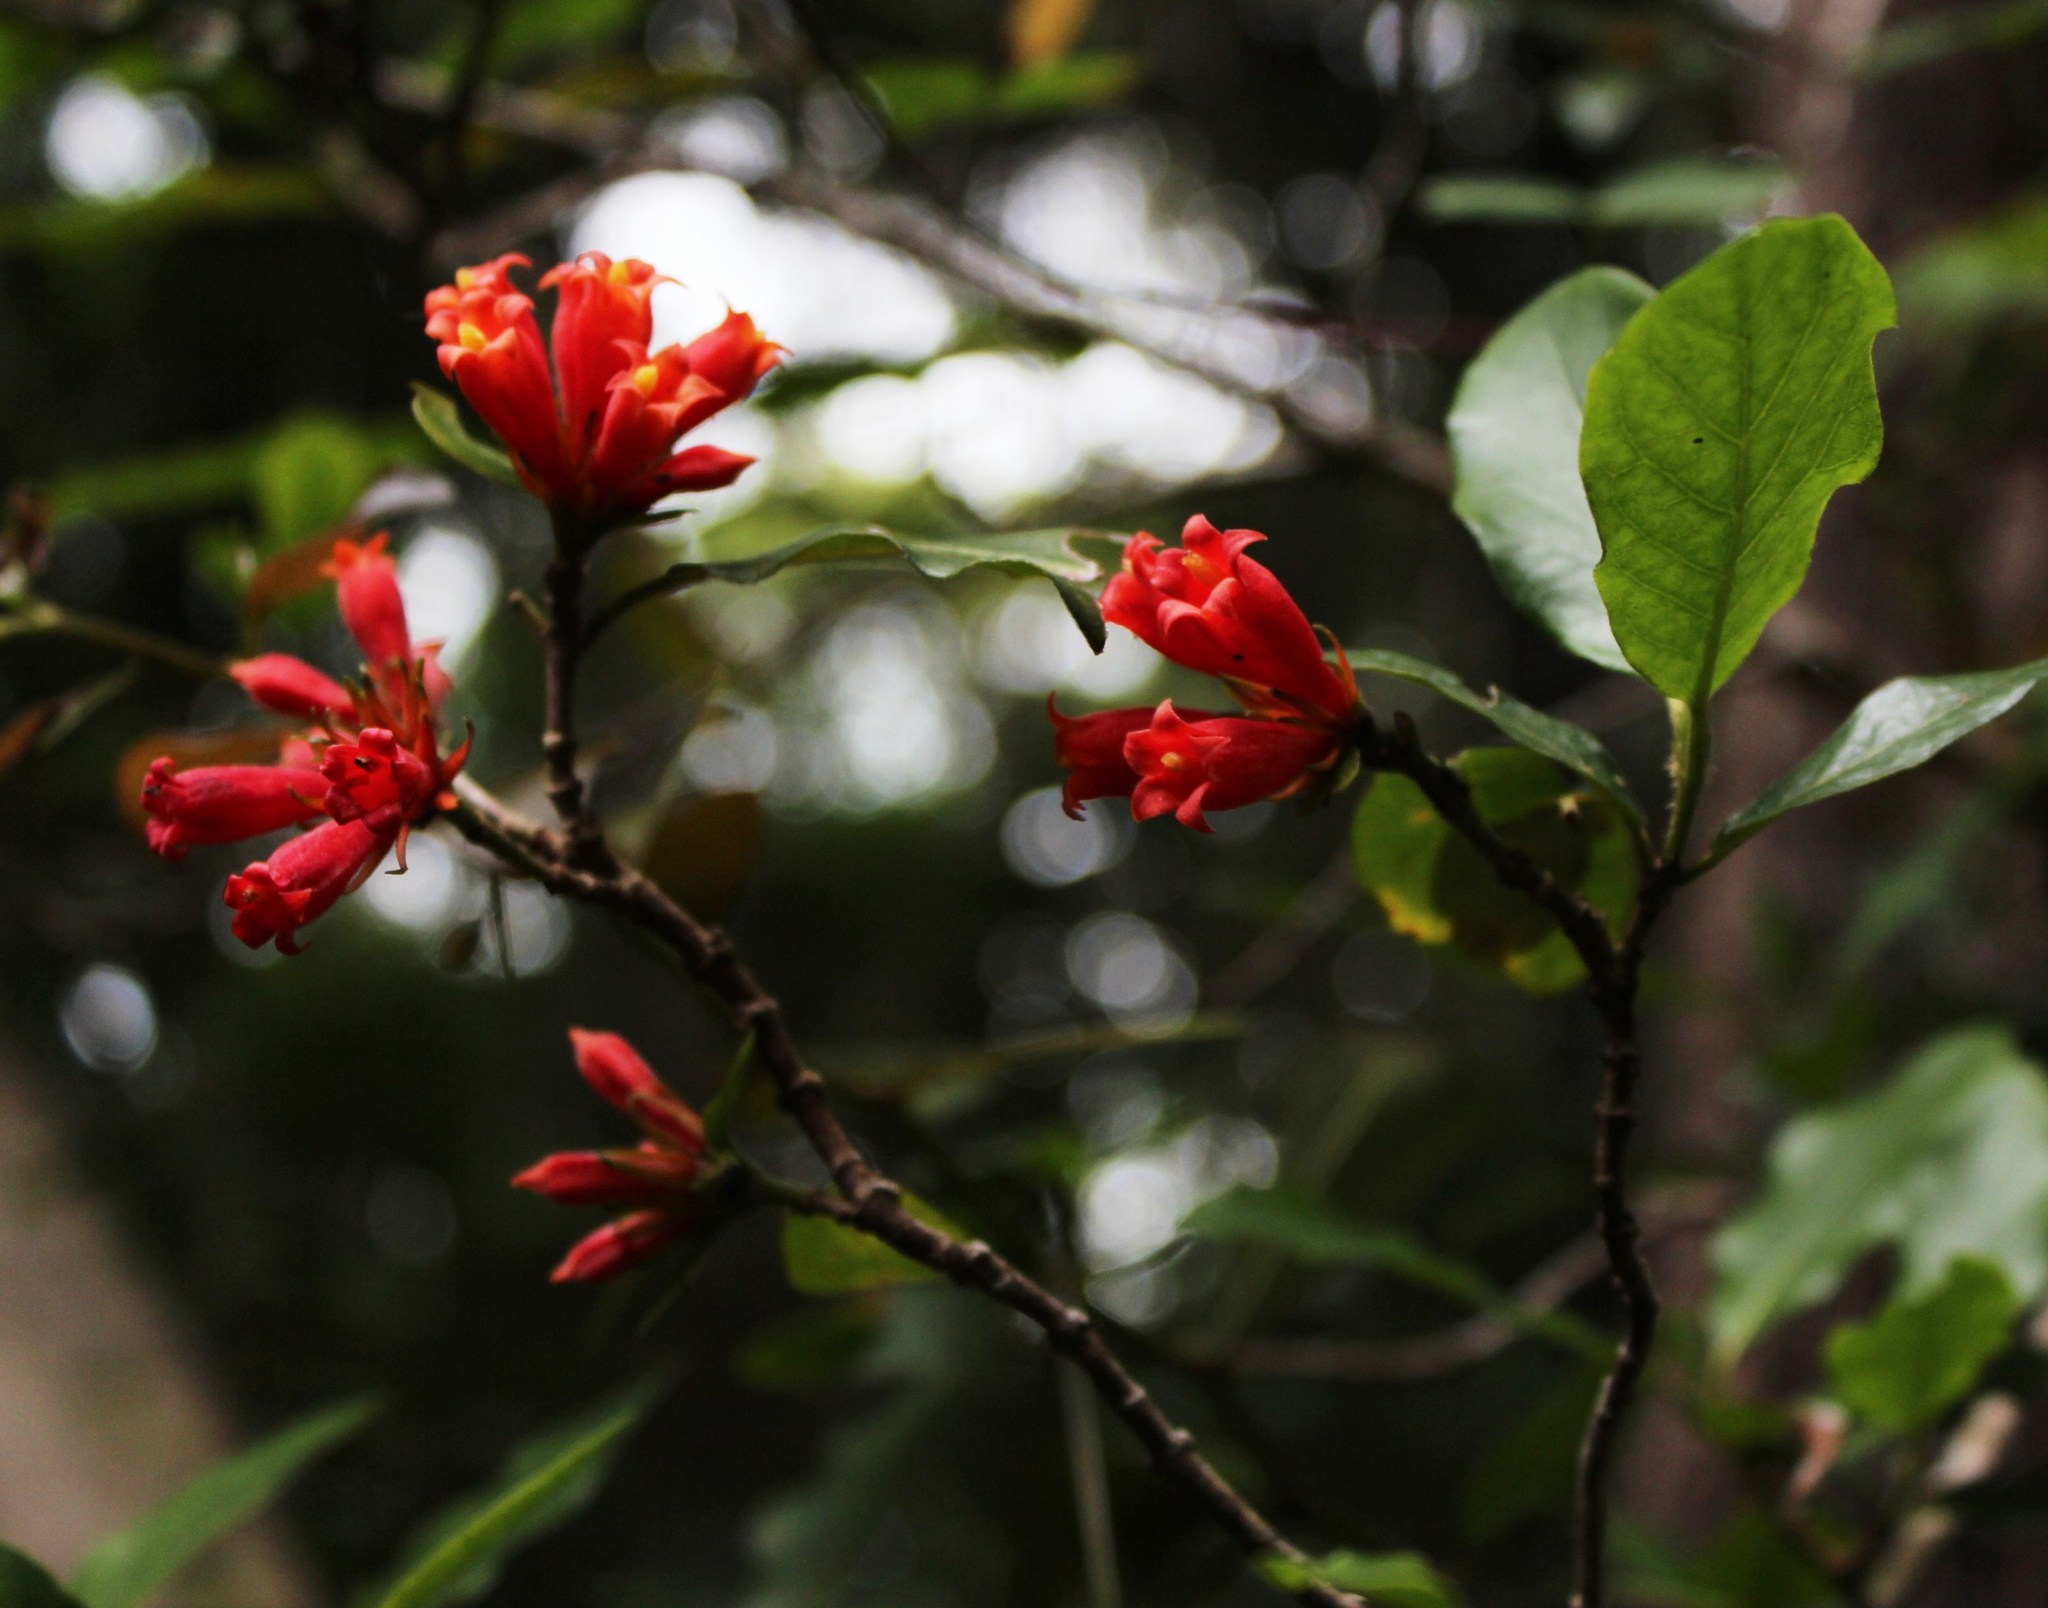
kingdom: Plantae
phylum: Tracheophyta
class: Magnoliopsida
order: Gentianales
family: Rubiaceae
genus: Burchellia
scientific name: Burchellia bubalina
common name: Wild pomegranate
